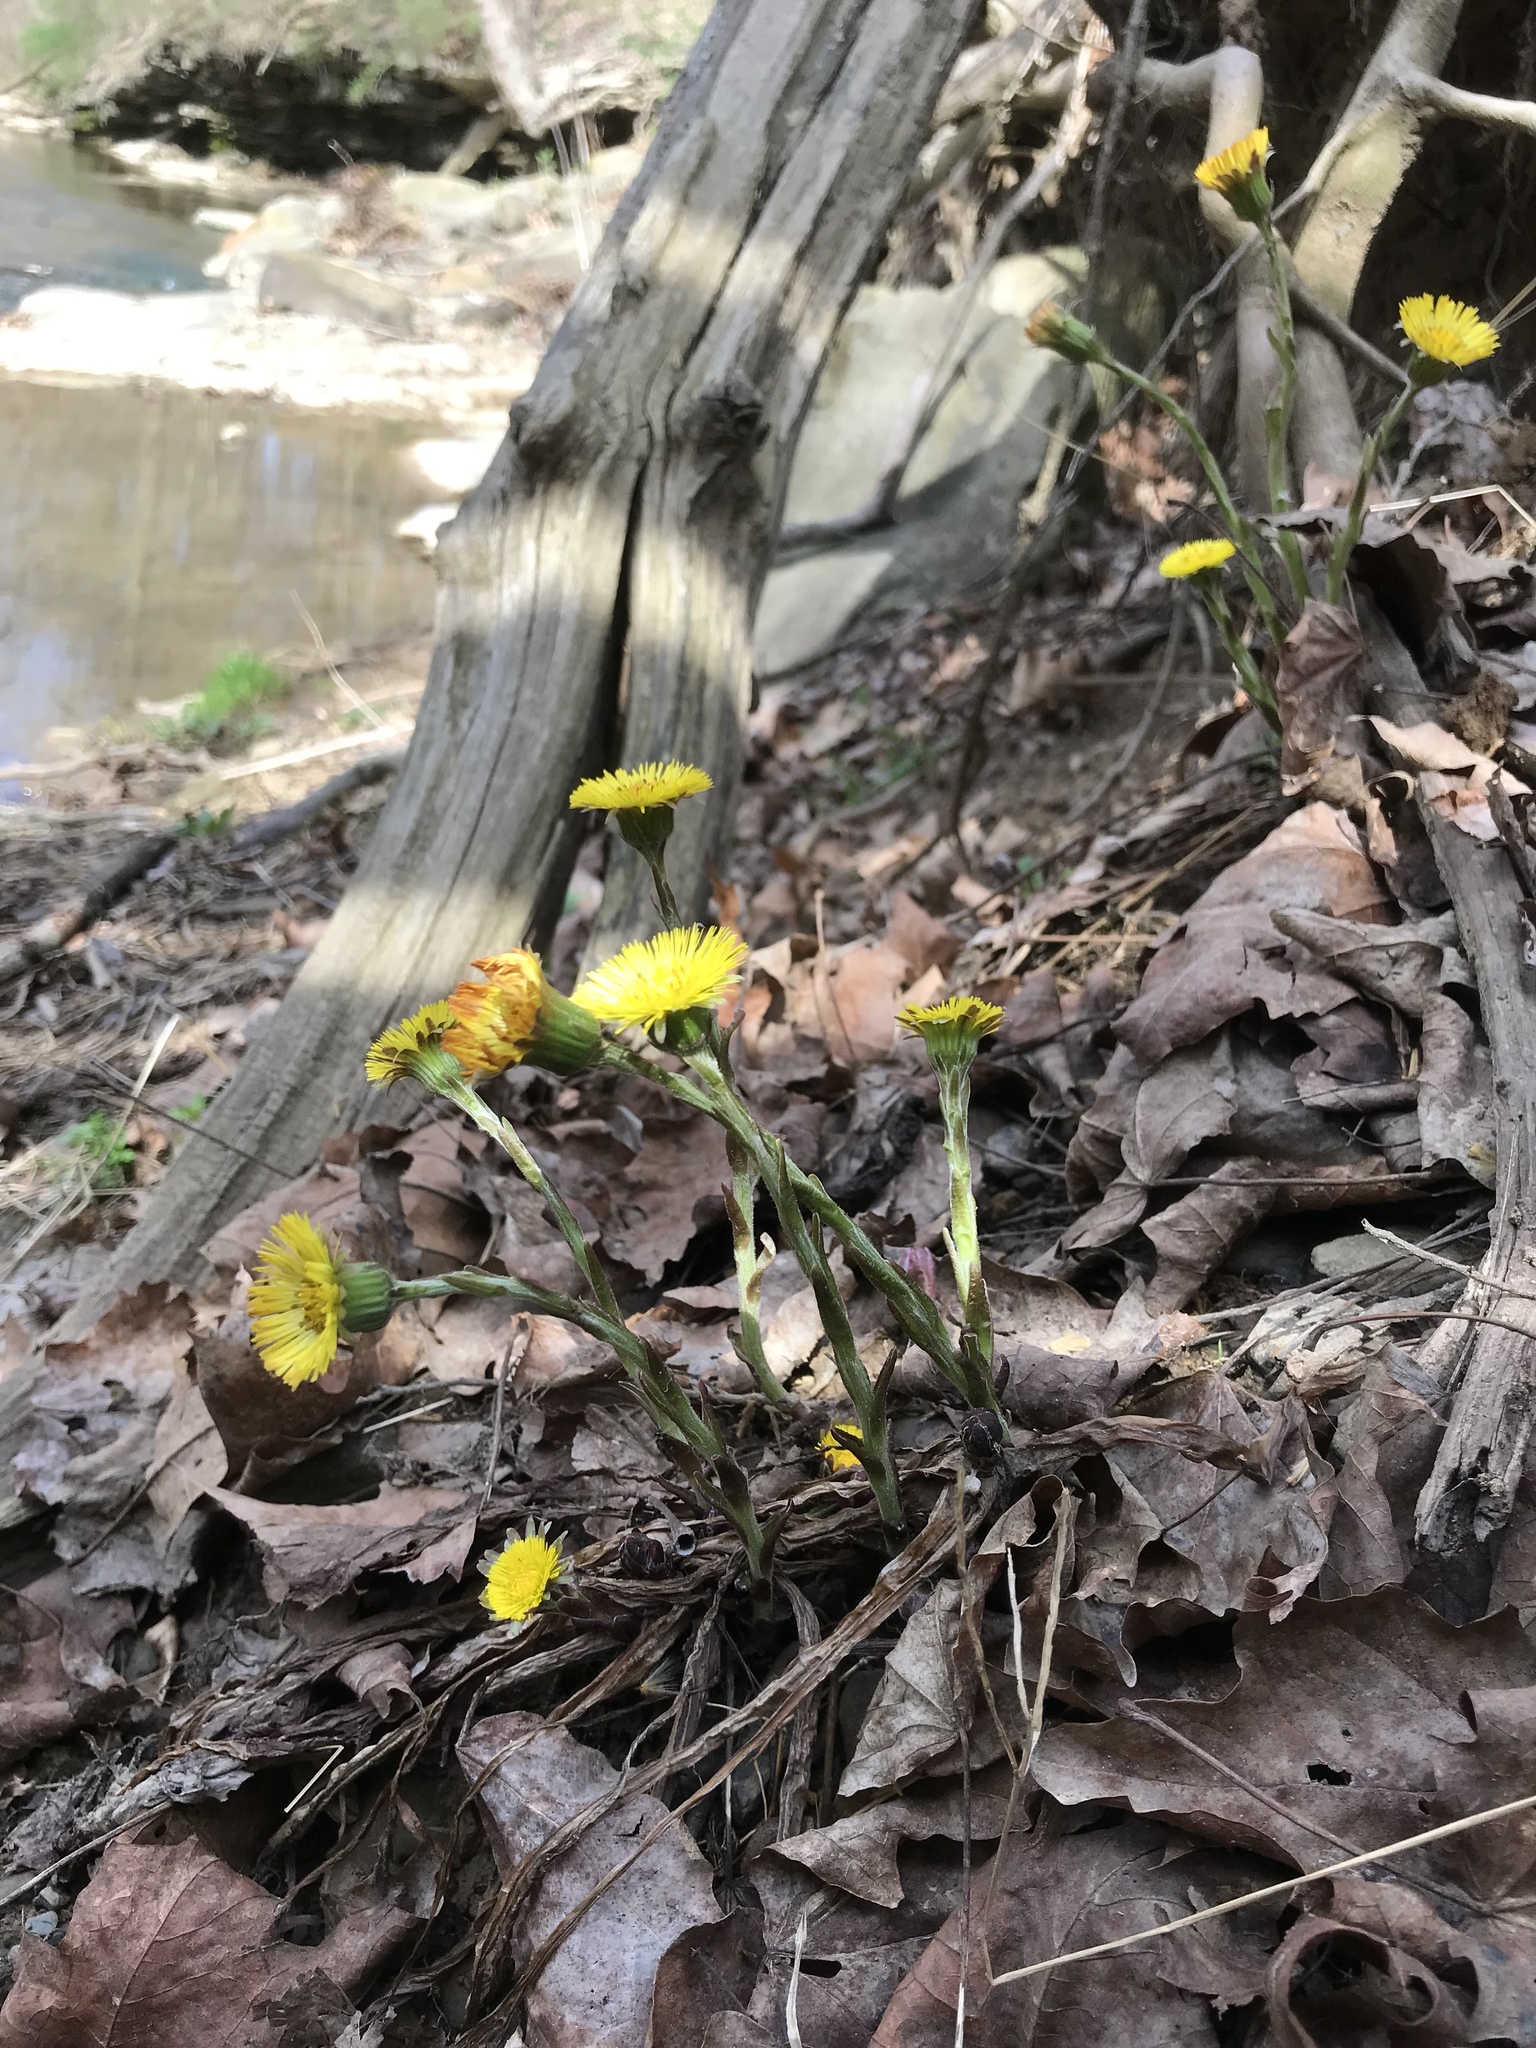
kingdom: Plantae
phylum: Tracheophyta
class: Magnoliopsida
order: Asterales
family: Asteraceae
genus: Tussilago
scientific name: Tussilago farfara
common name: Coltsfoot
